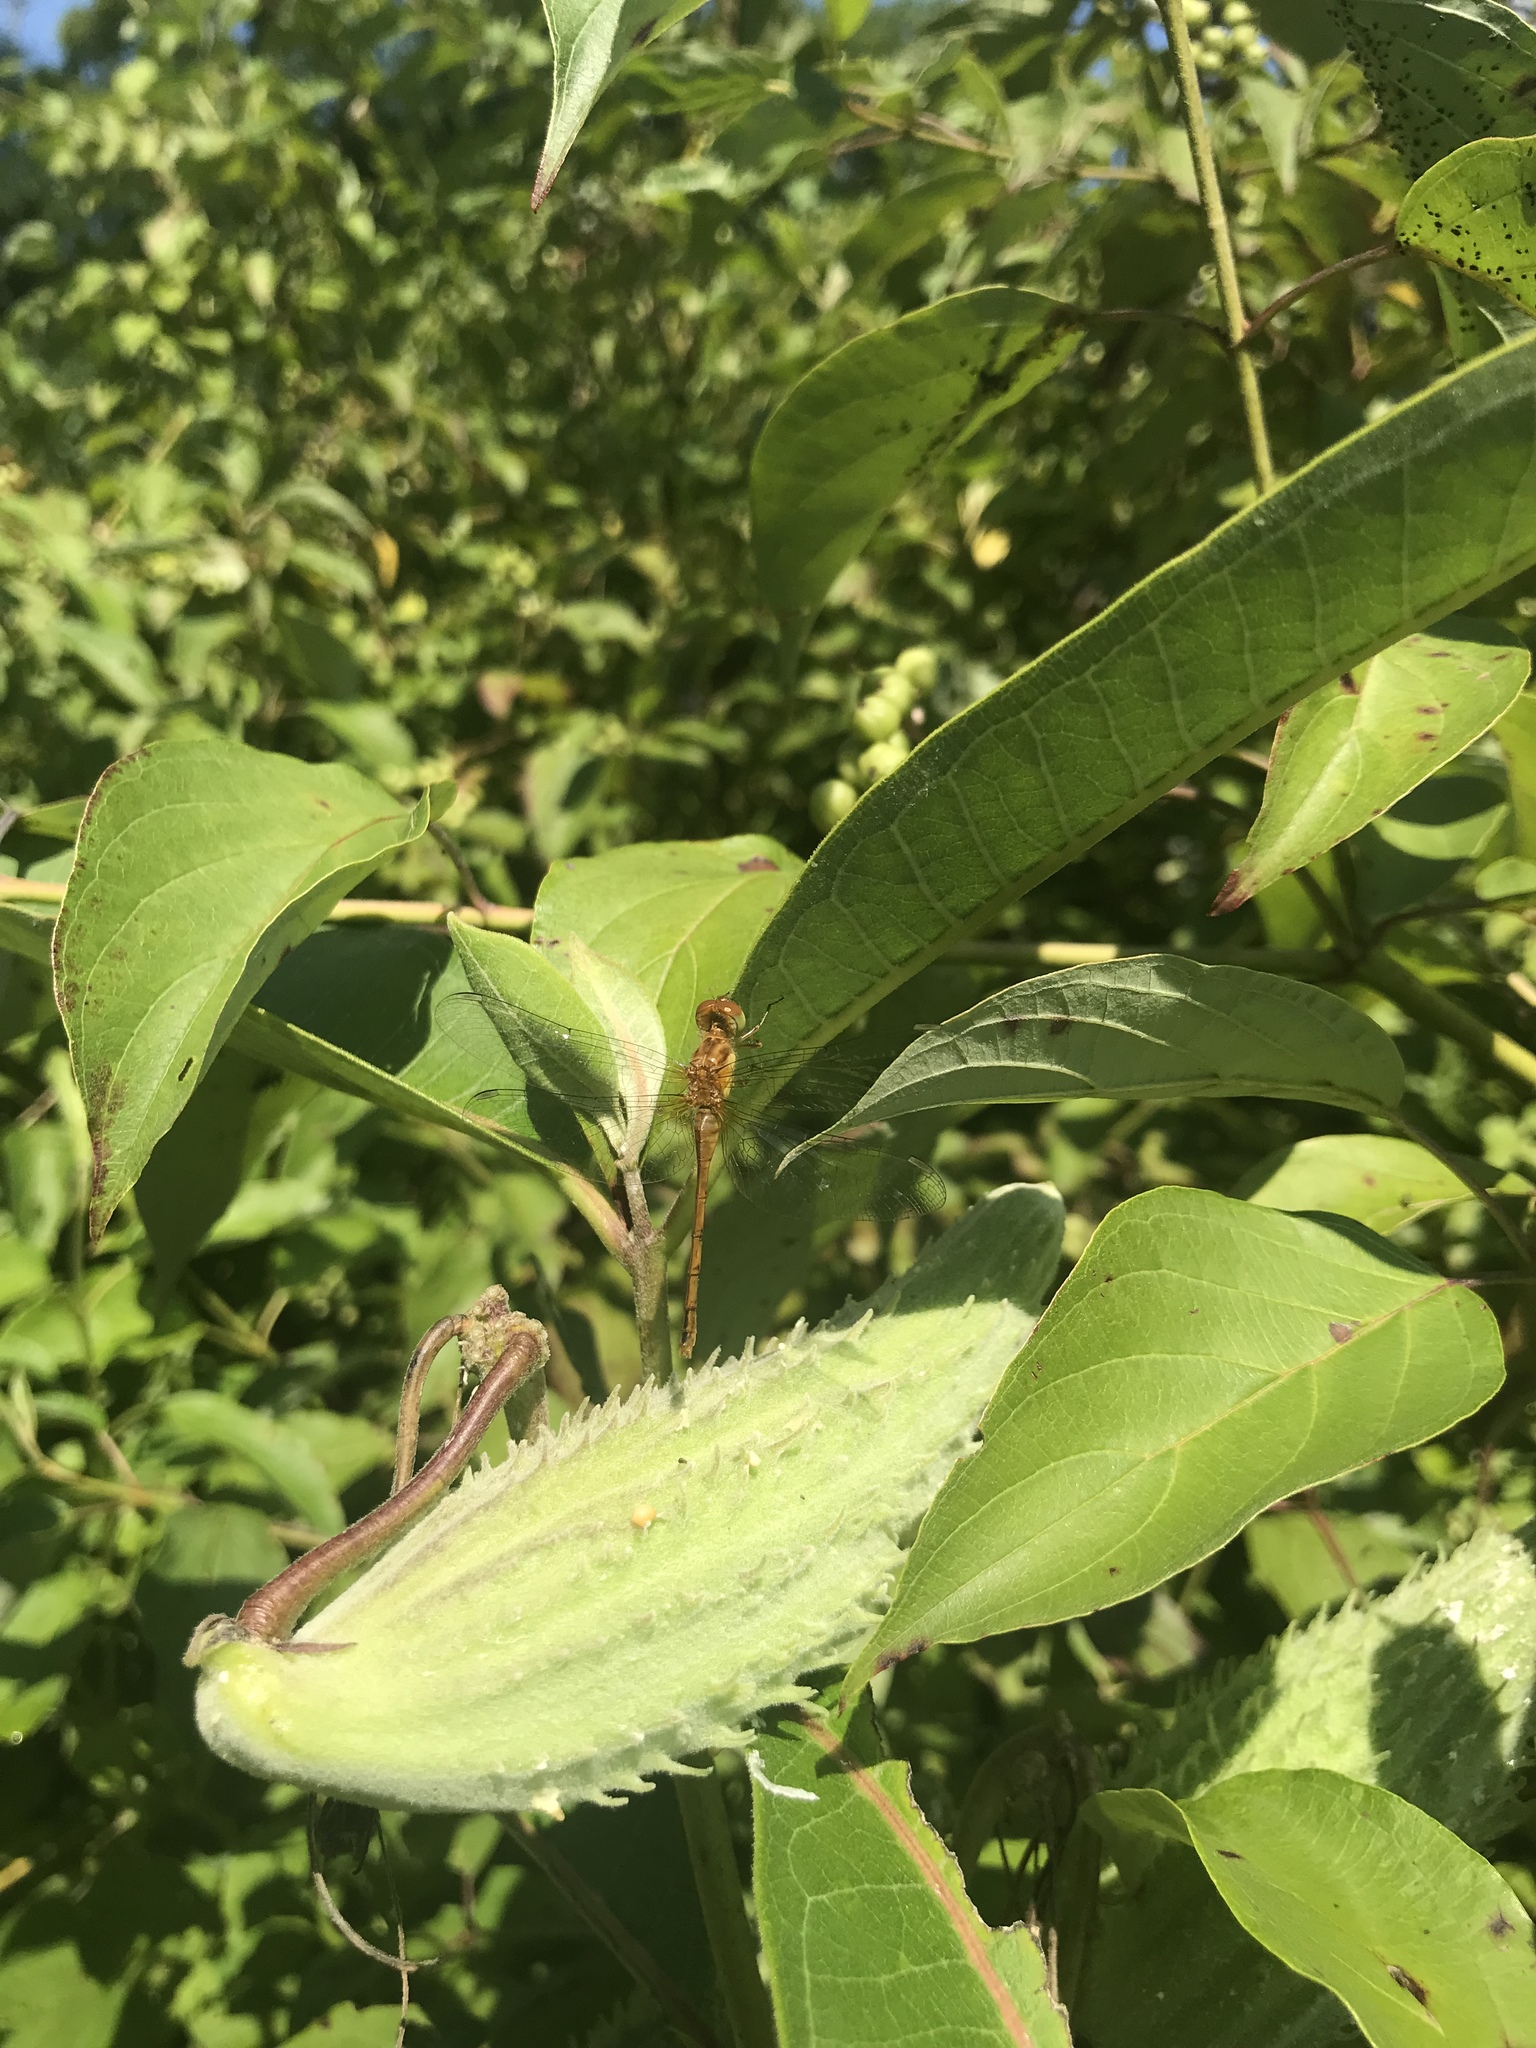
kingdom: Animalia
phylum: Arthropoda
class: Insecta
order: Odonata
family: Libellulidae
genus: Sympetrum
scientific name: Sympetrum vicinum
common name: Autumn meadowhawk
